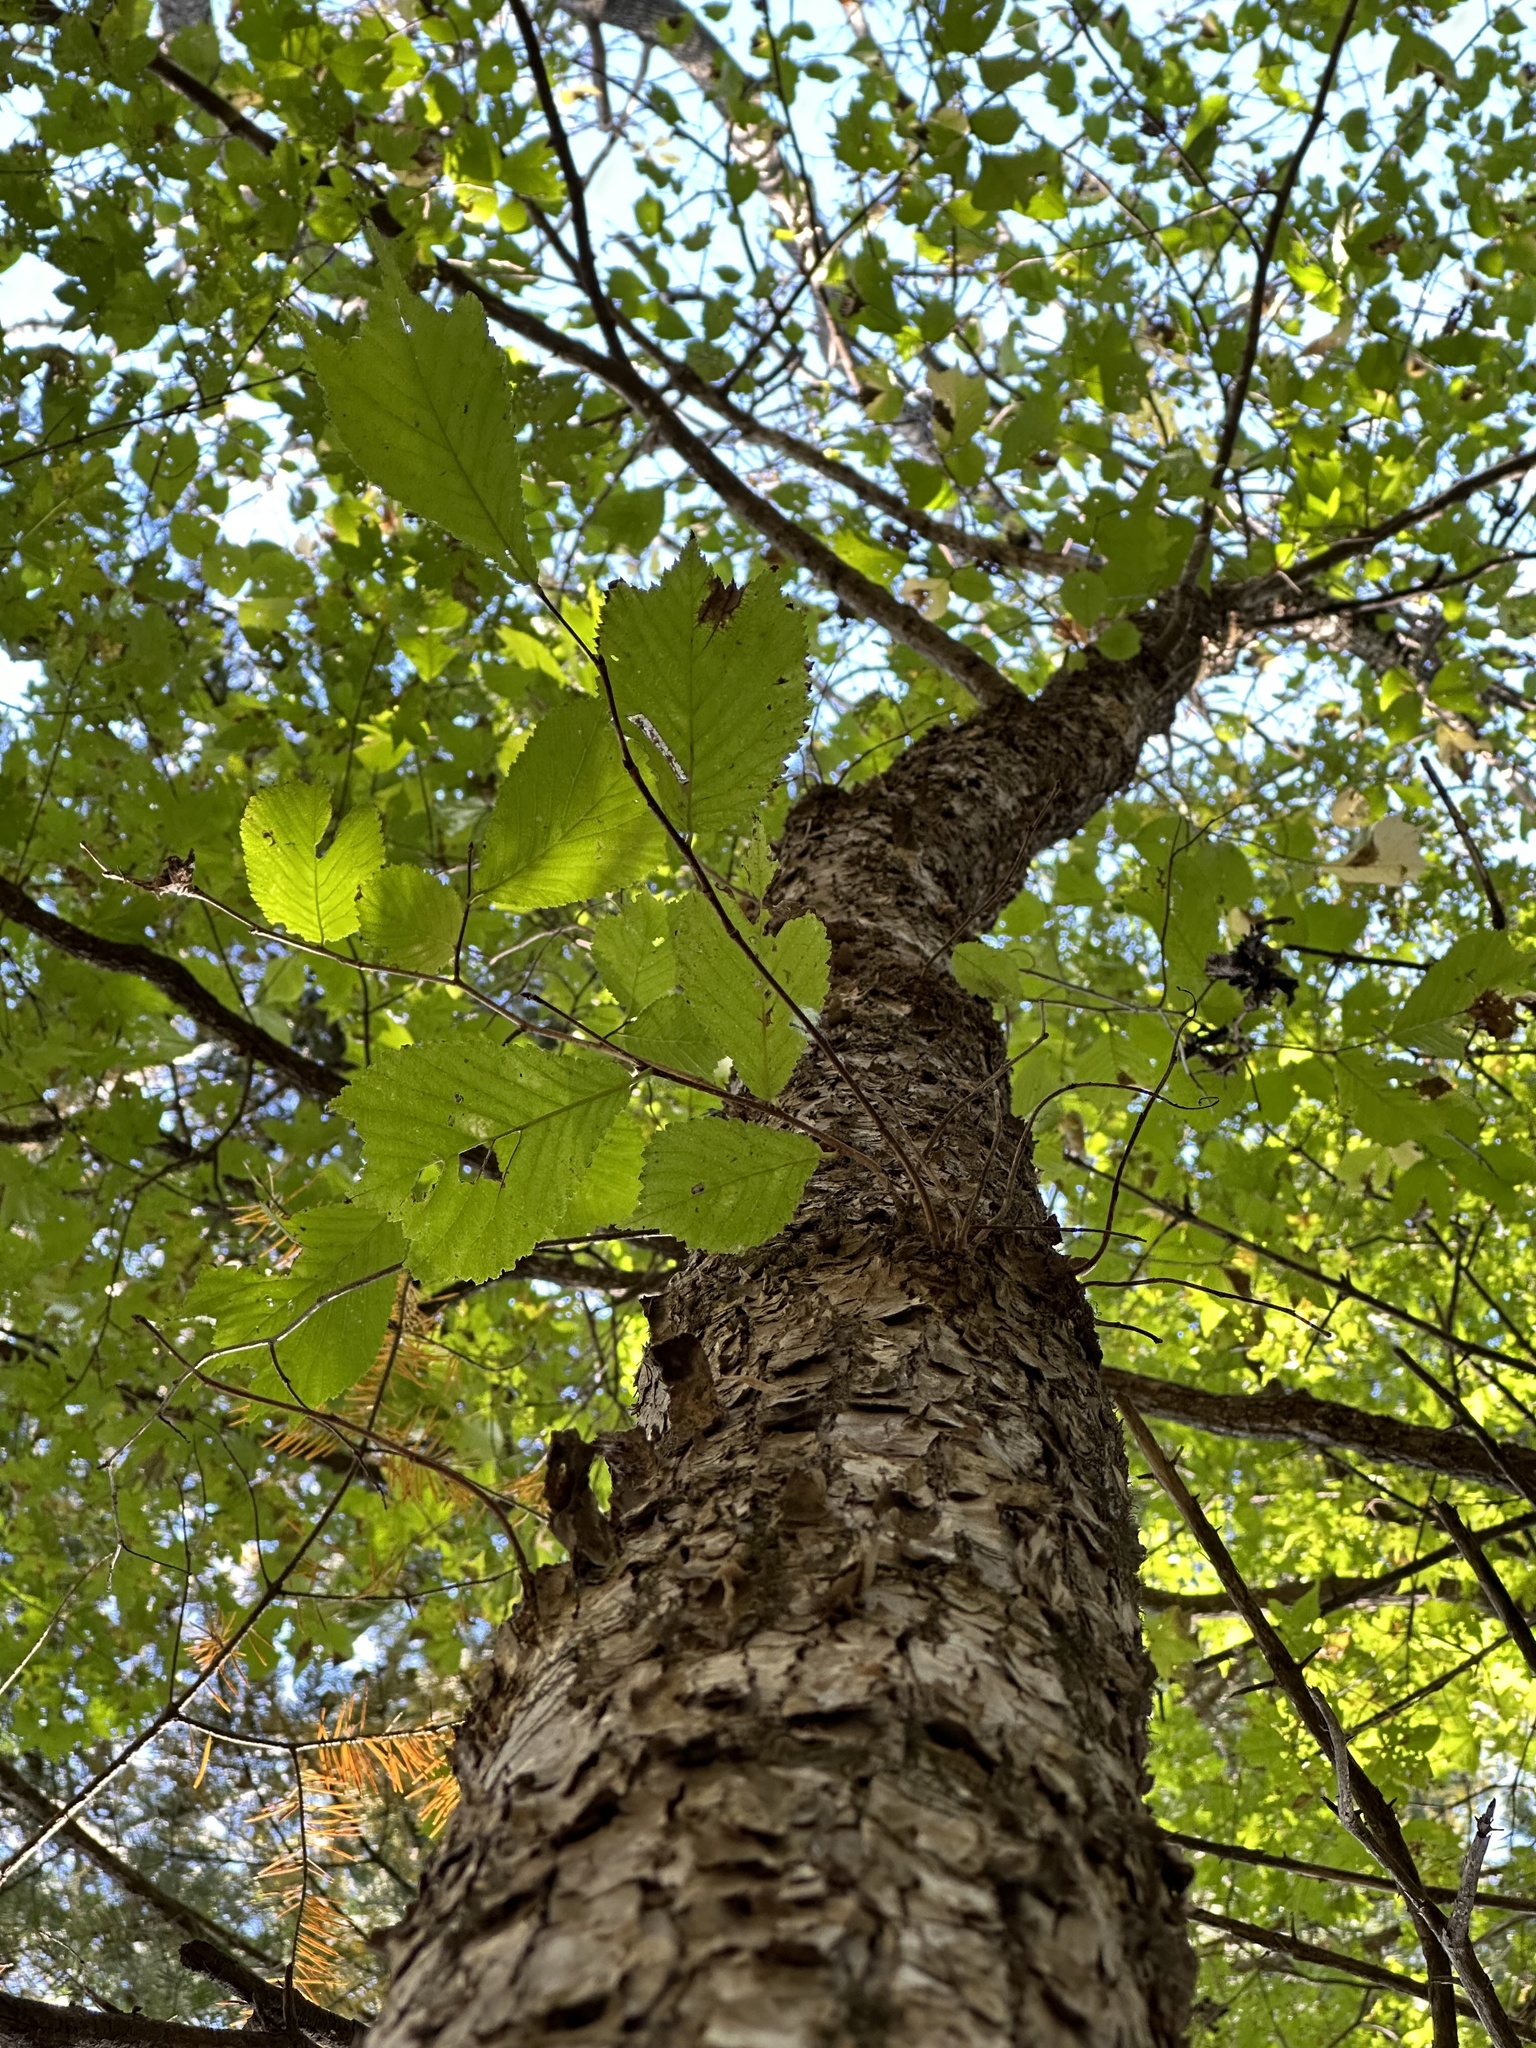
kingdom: Plantae
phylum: Tracheophyta
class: Magnoliopsida
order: Rosales
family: Ulmaceae
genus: Ulmus
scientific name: Ulmus laciniata
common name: Japanese elm
